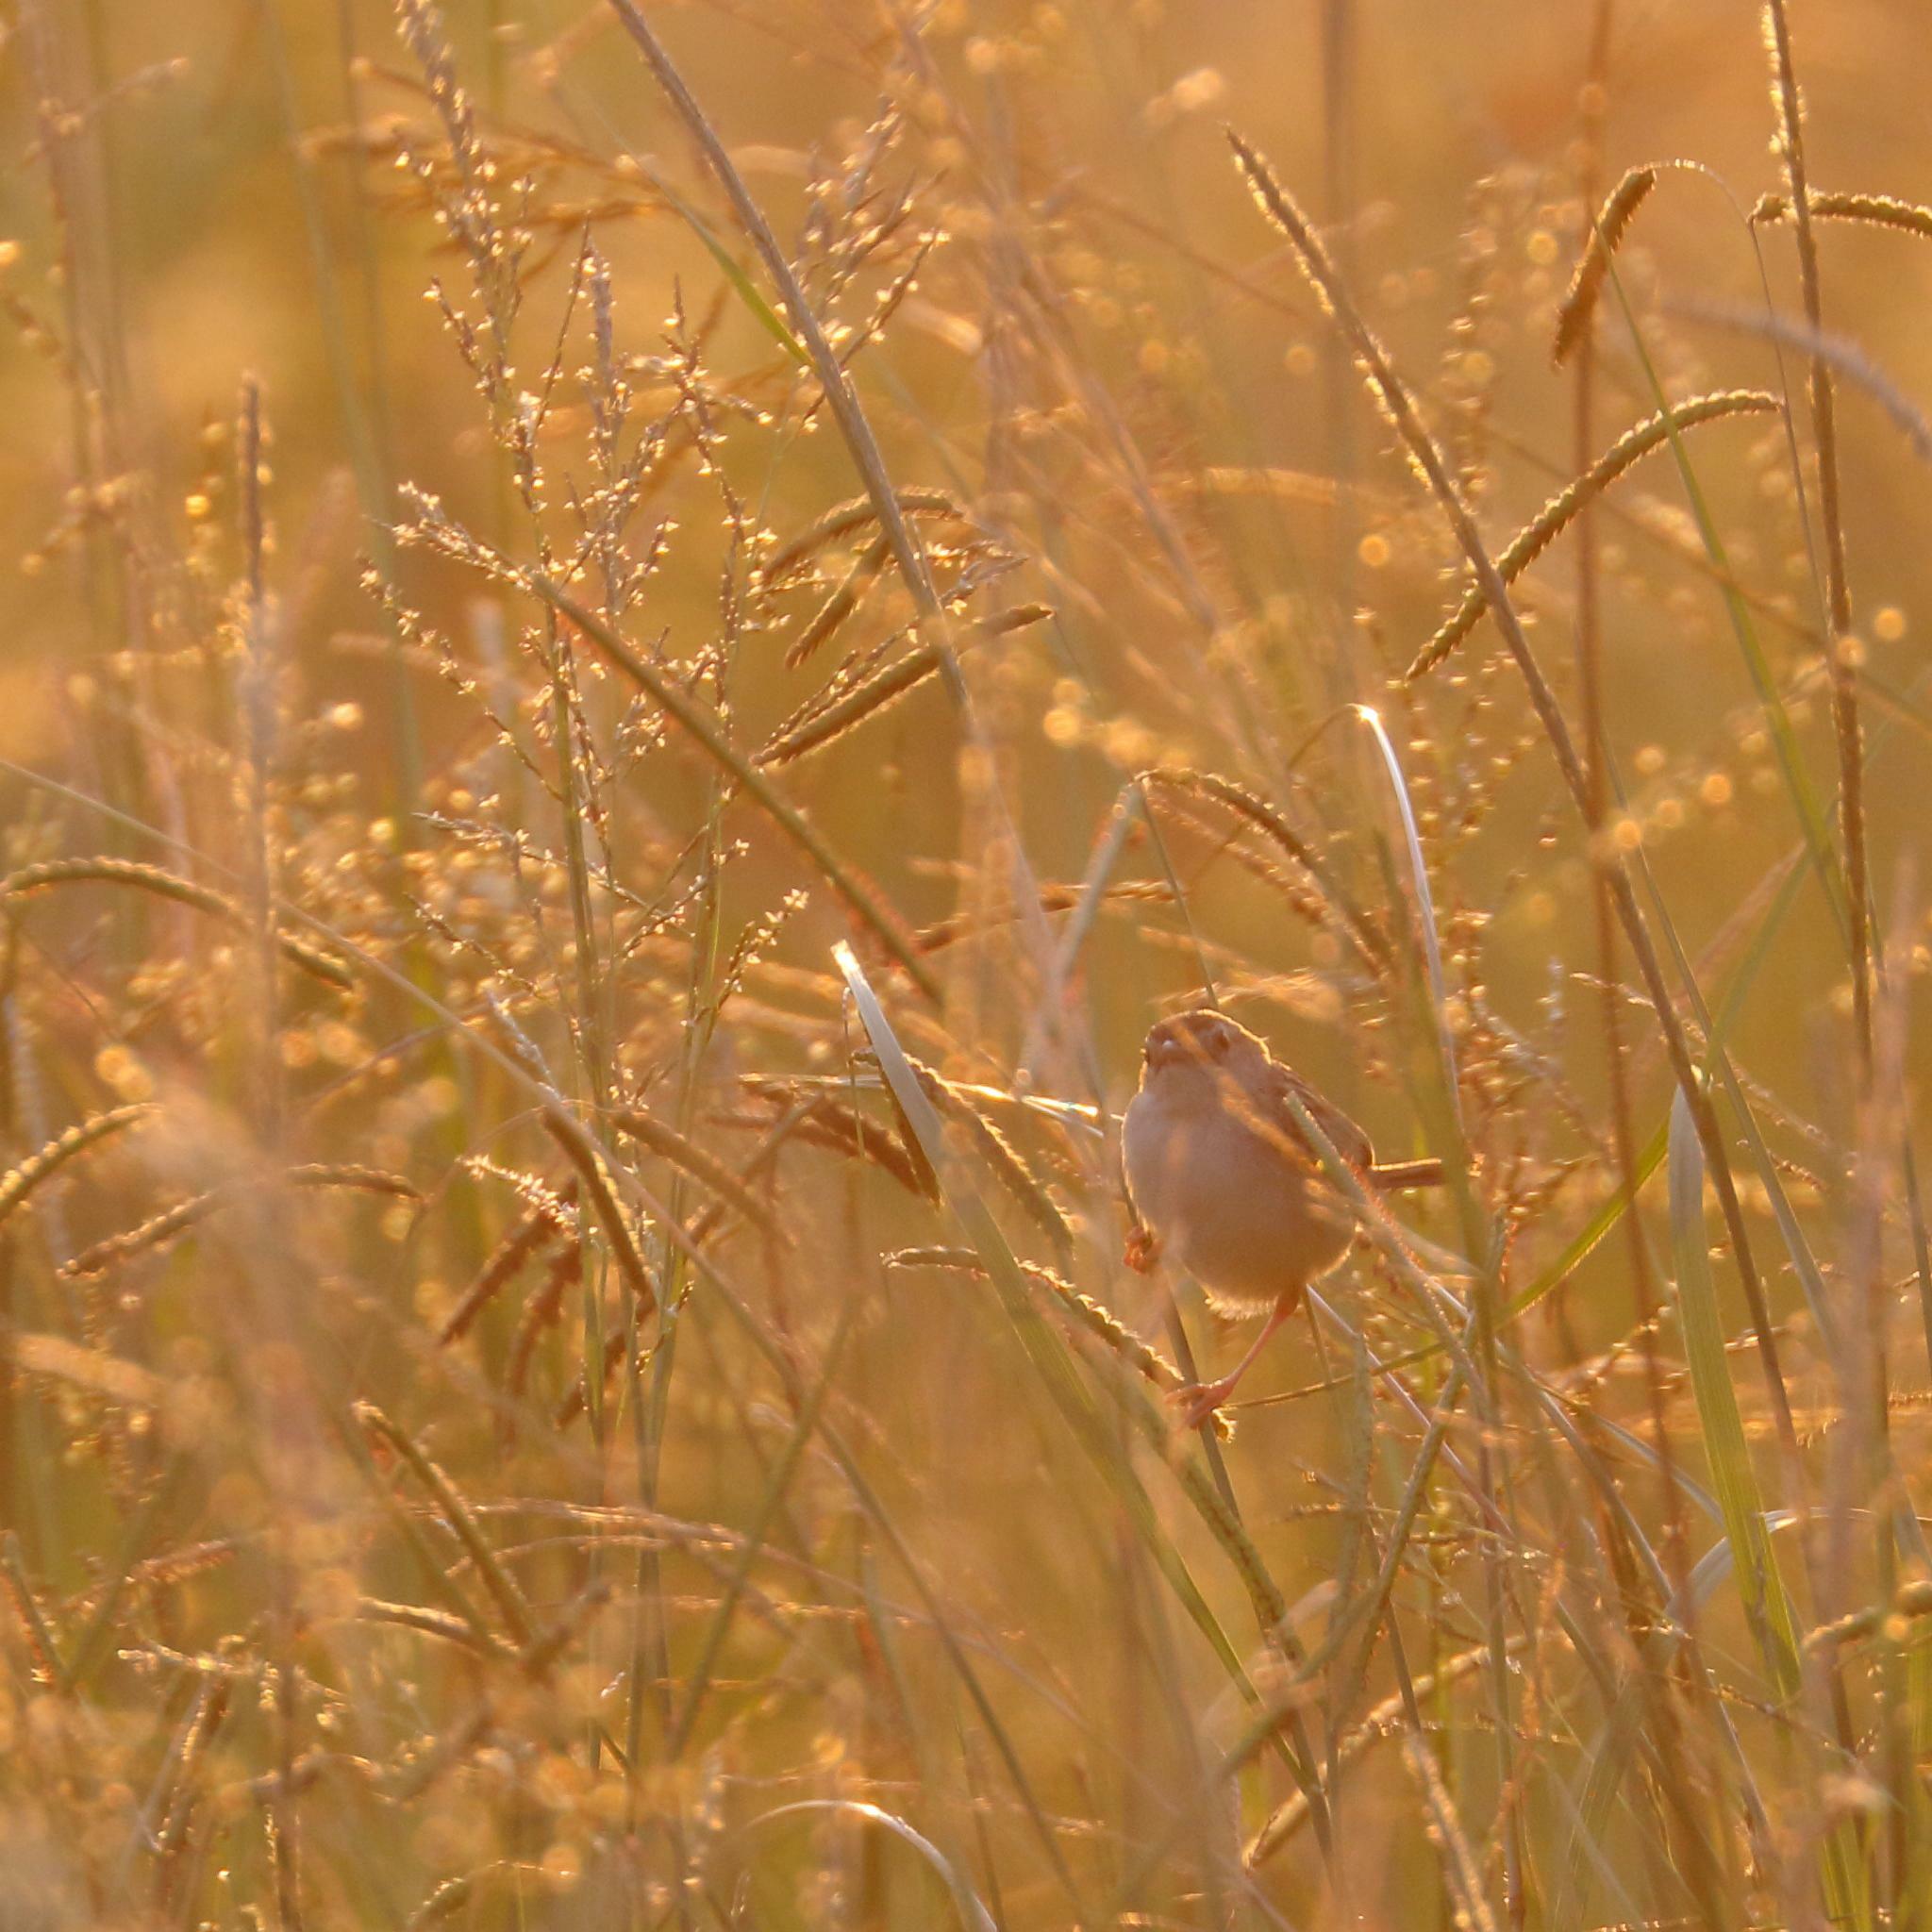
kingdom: Animalia
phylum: Chordata
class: Aves
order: Passeriformes
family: Cisticolidae
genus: Cisticola
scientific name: Cisticola juncidis
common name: Zitting cisticola
